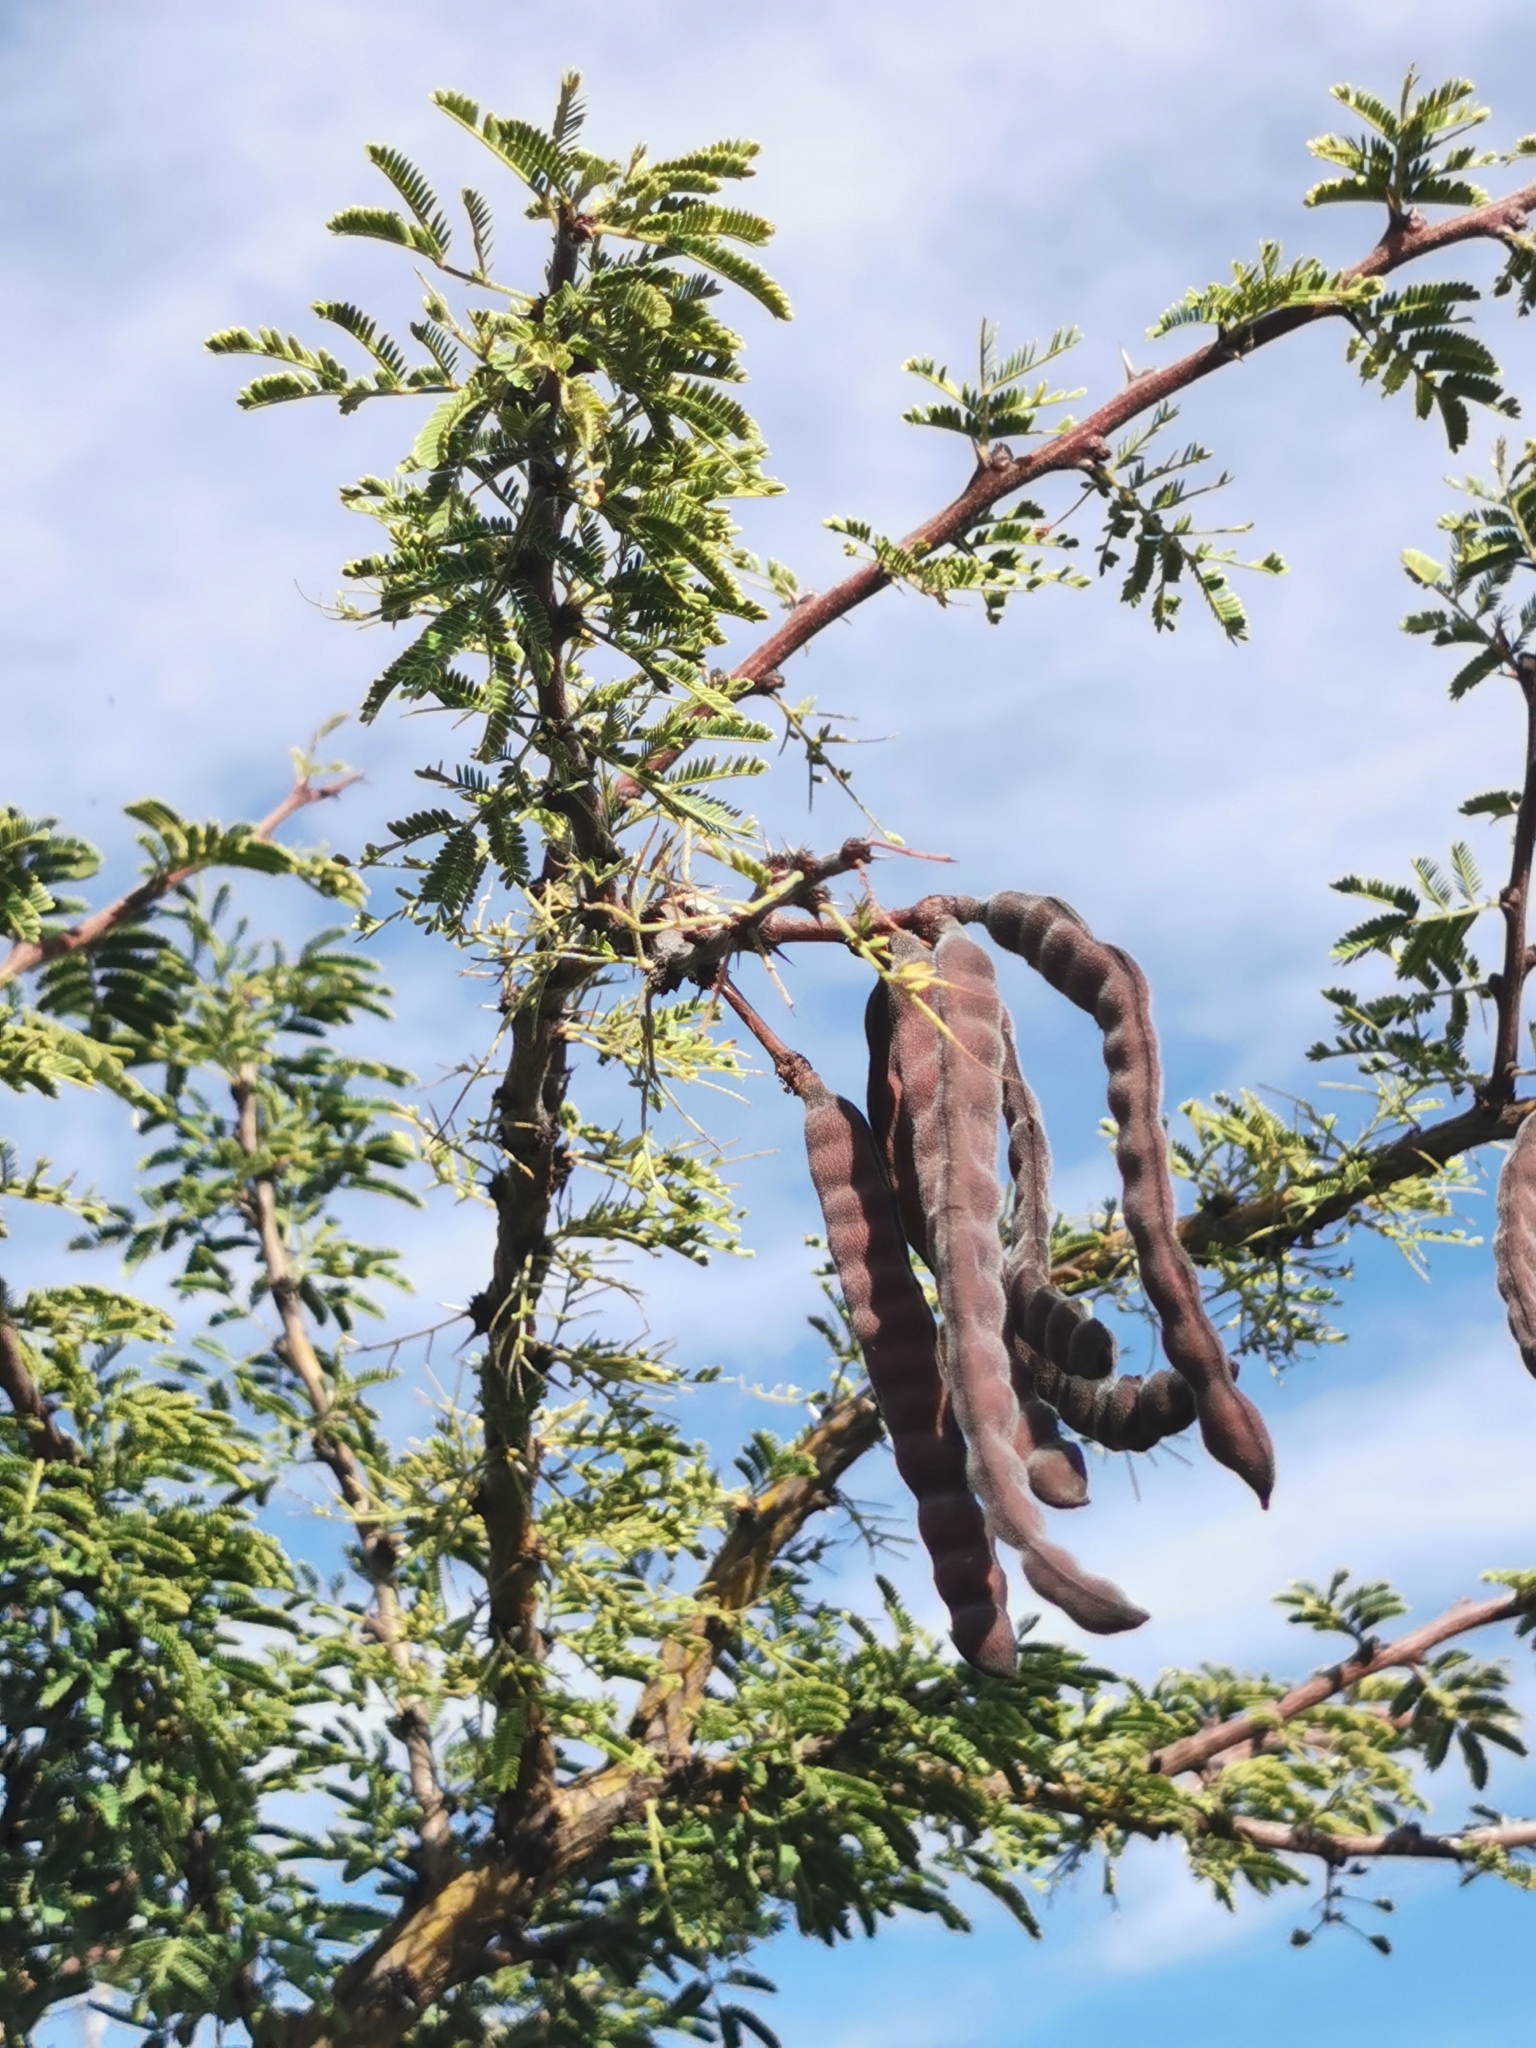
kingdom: Plantae
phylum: Tracheophyta
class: Magnoliopsida
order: Fabales
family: Fabaceae
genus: Vachellia
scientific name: Vachellia schaffneri
